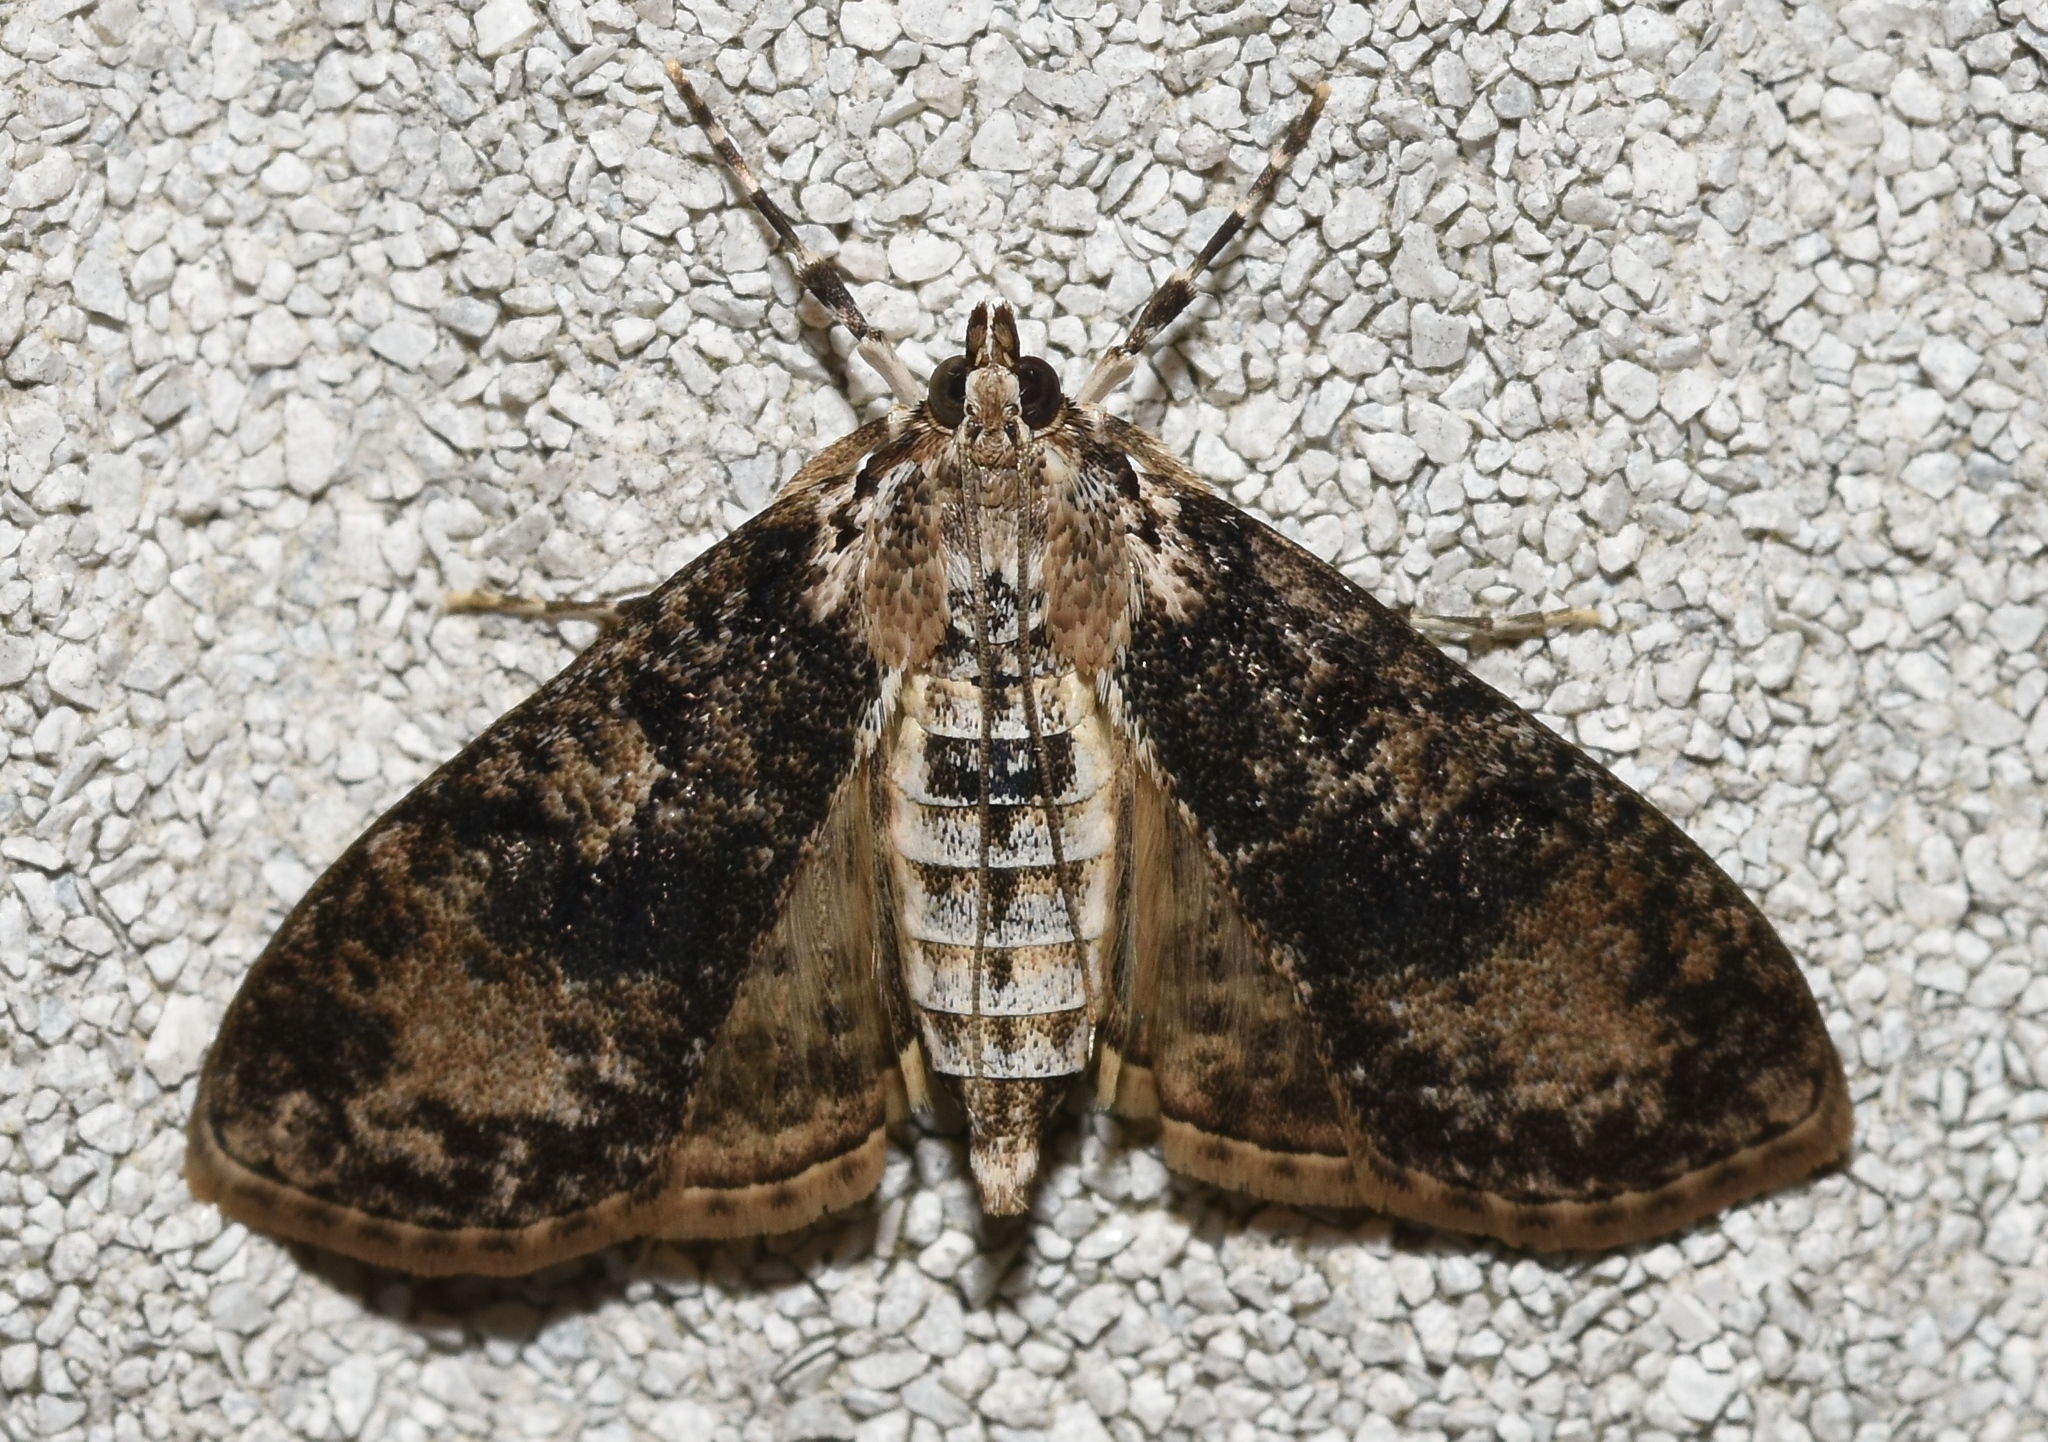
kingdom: Animalia
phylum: Arthropoda
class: Insecta
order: Lepidoptera
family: Crambidae
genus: Palpita
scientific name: Palpita magniferalis
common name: Splendid palpita moth
